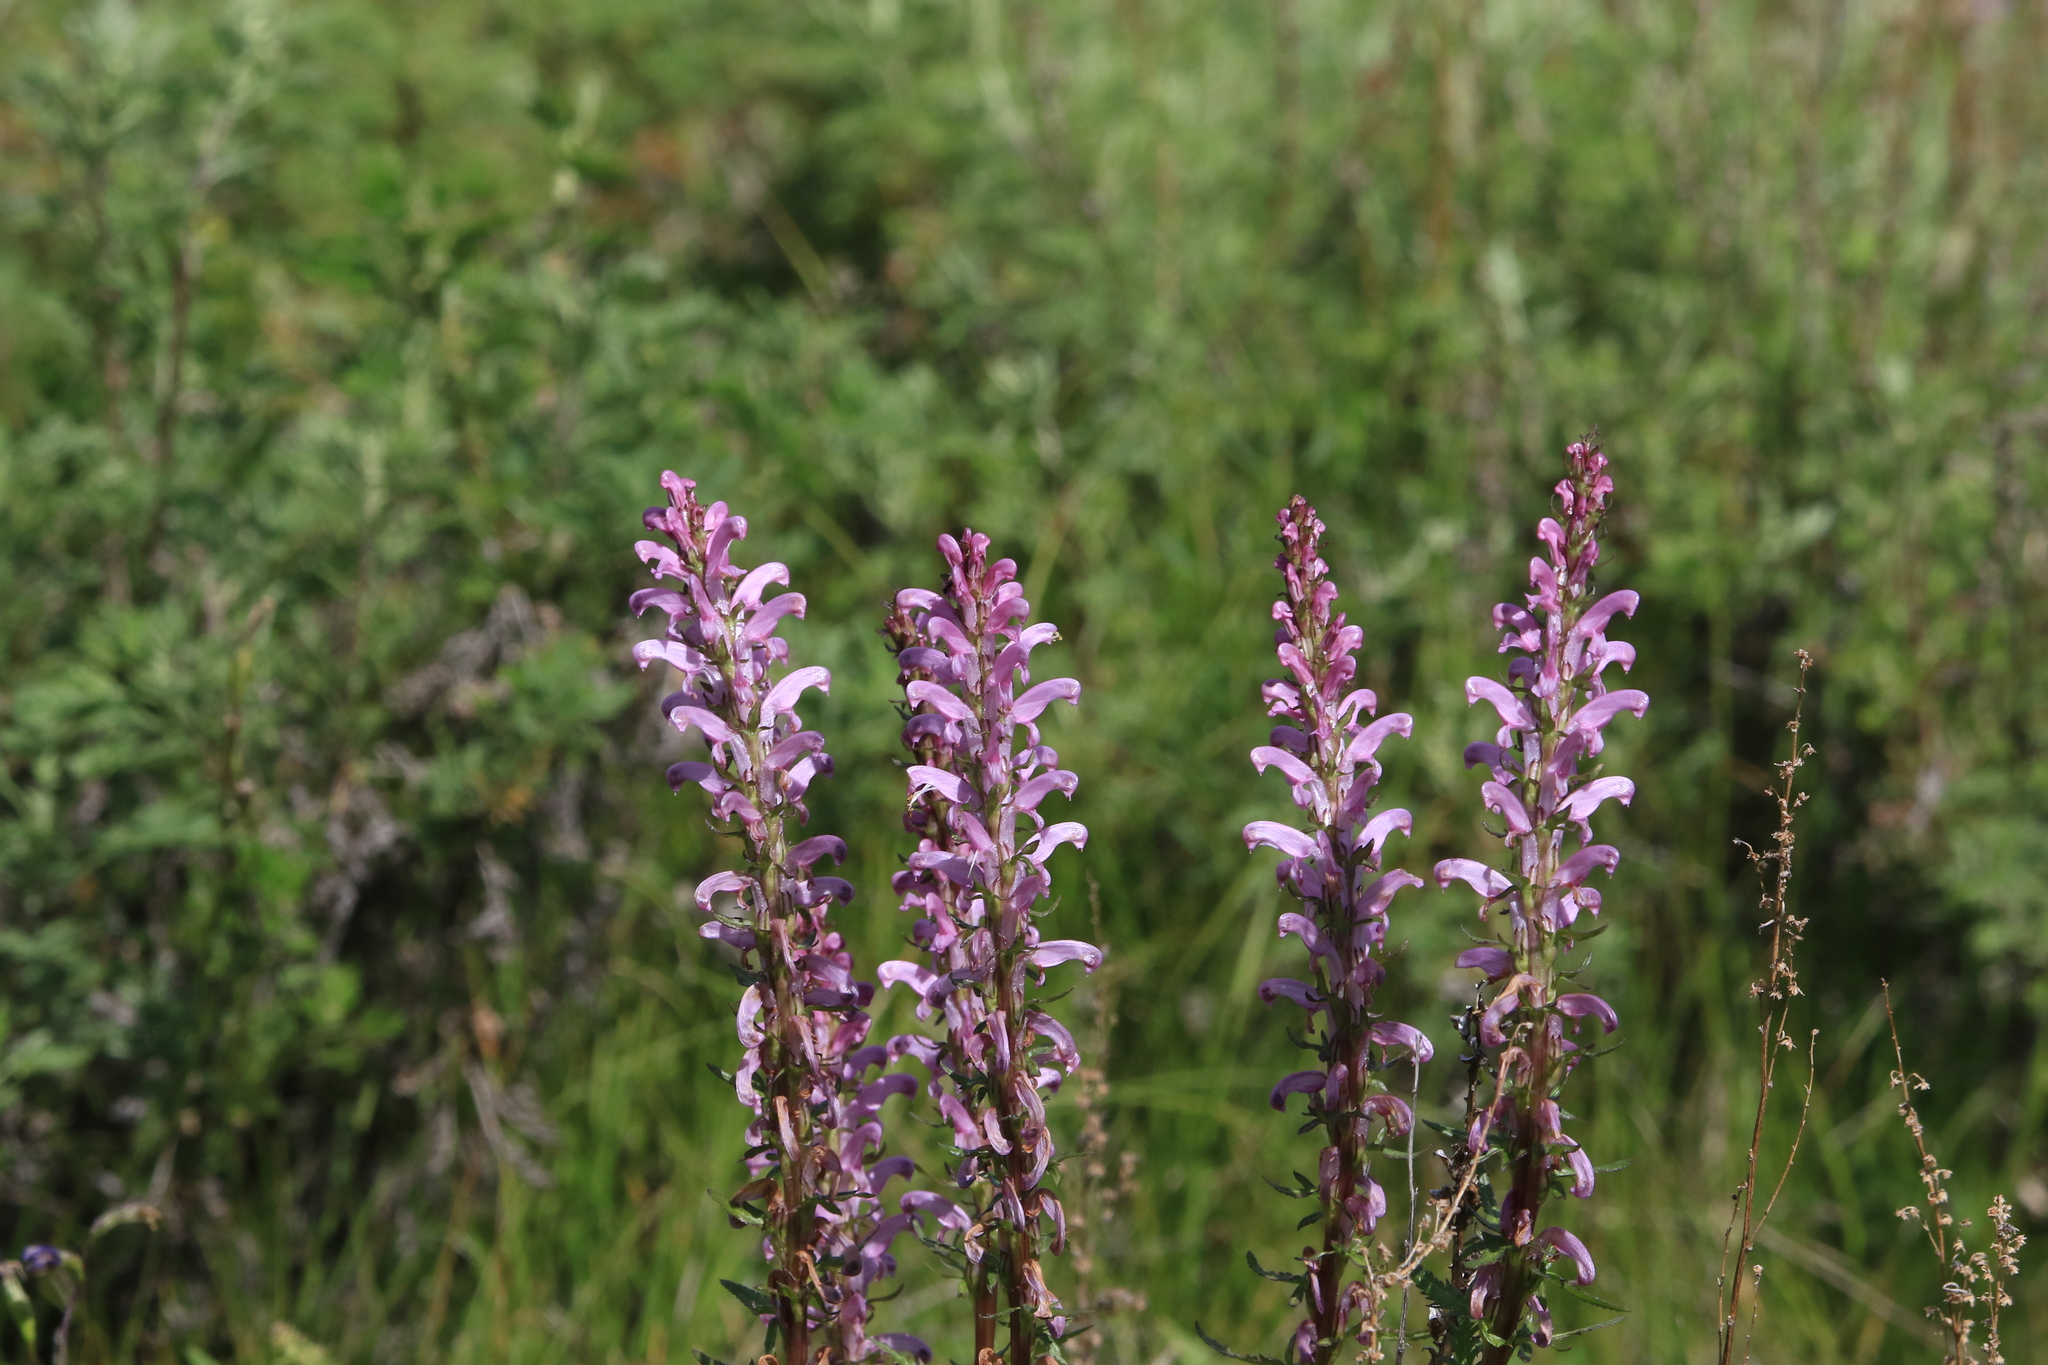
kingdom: Plantae
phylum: Tracheophyta
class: Magnoliopsida
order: Lamiales
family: Orobanchaceae
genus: Pedicularis
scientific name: Pedicularis elata
